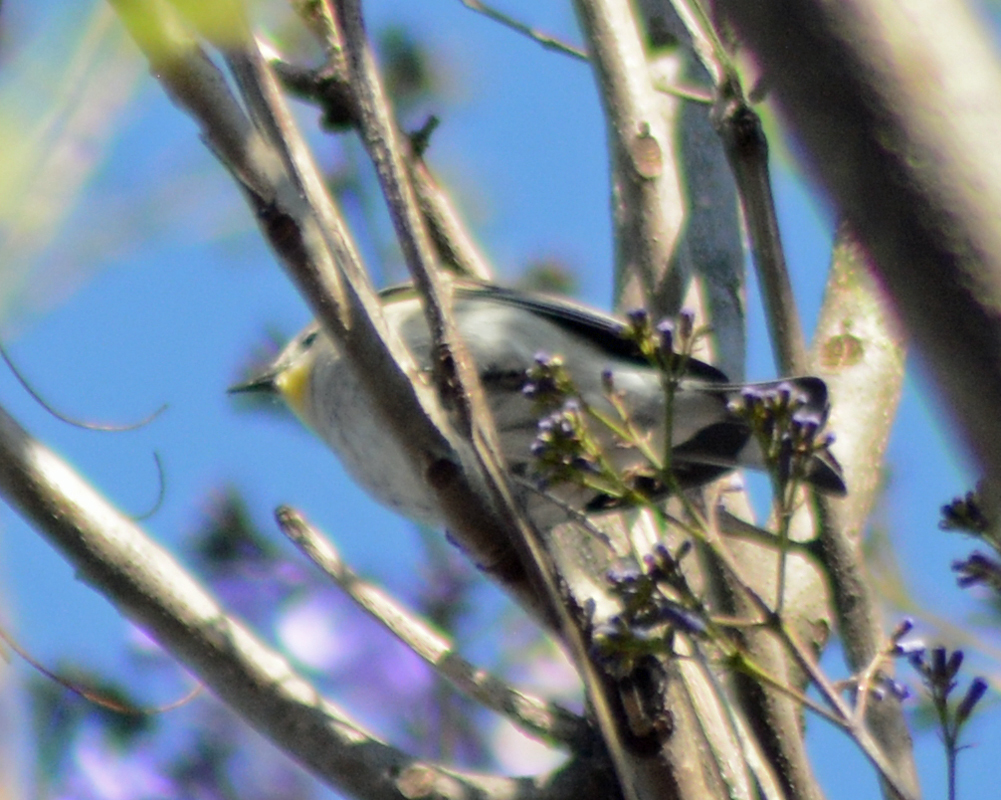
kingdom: Animalia
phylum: Chordata
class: Aves
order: Passeriformes
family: Parulidae
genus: Setophaga
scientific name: Setophaga coronata
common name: Myrtle warbler
